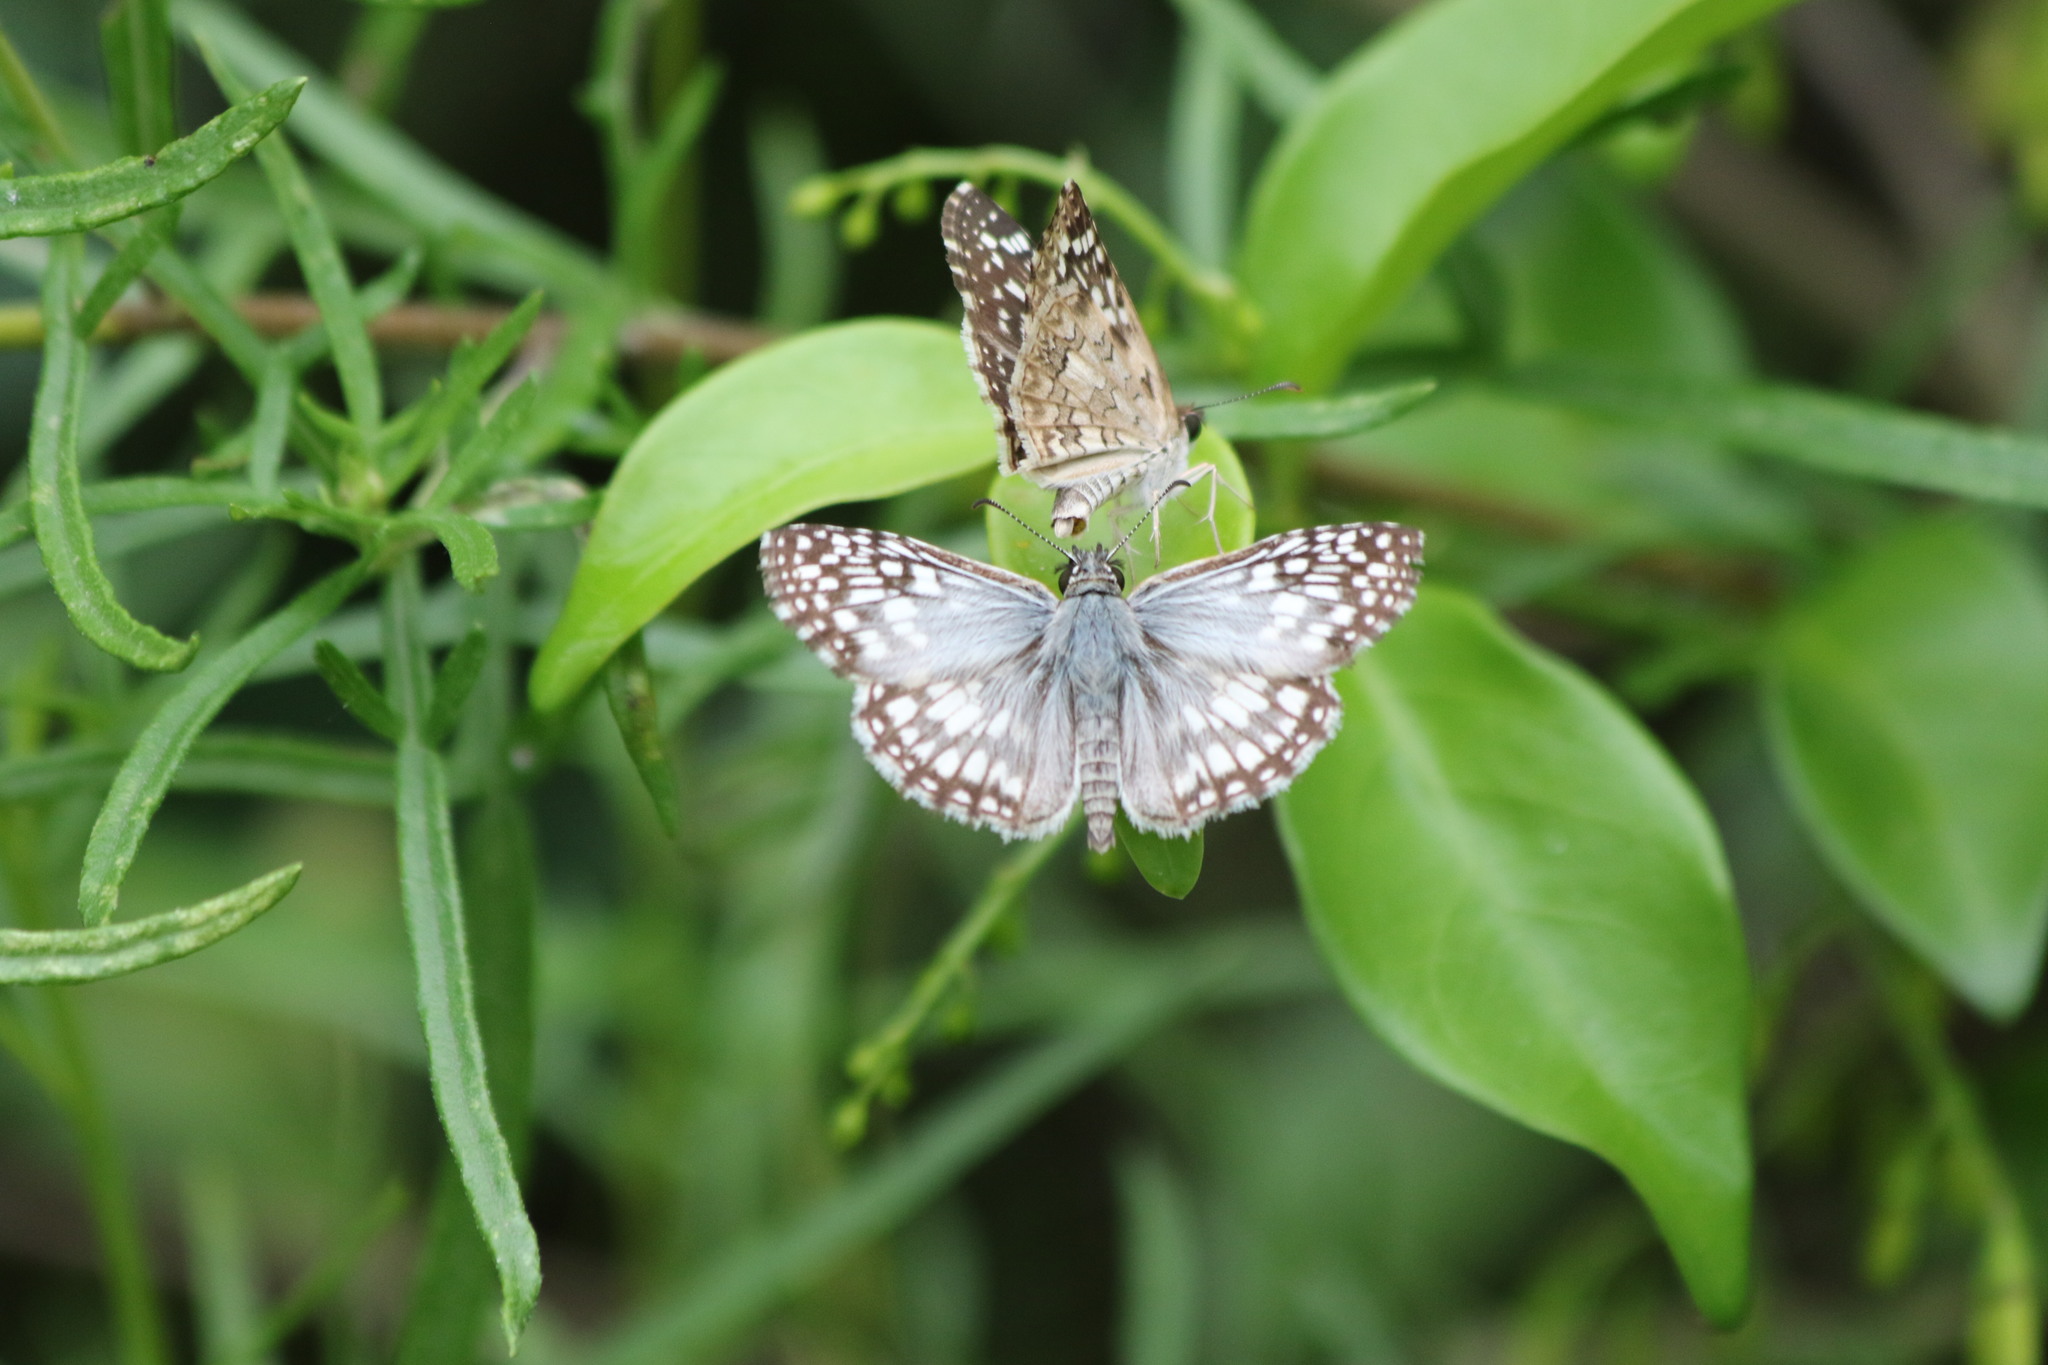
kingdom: Animalia
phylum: Arthropoda
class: Insecta
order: Lepidoptera
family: Hesperiidae
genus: Pyrgus
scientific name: Pyrgus oileus
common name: Tropical checkered-skipper
